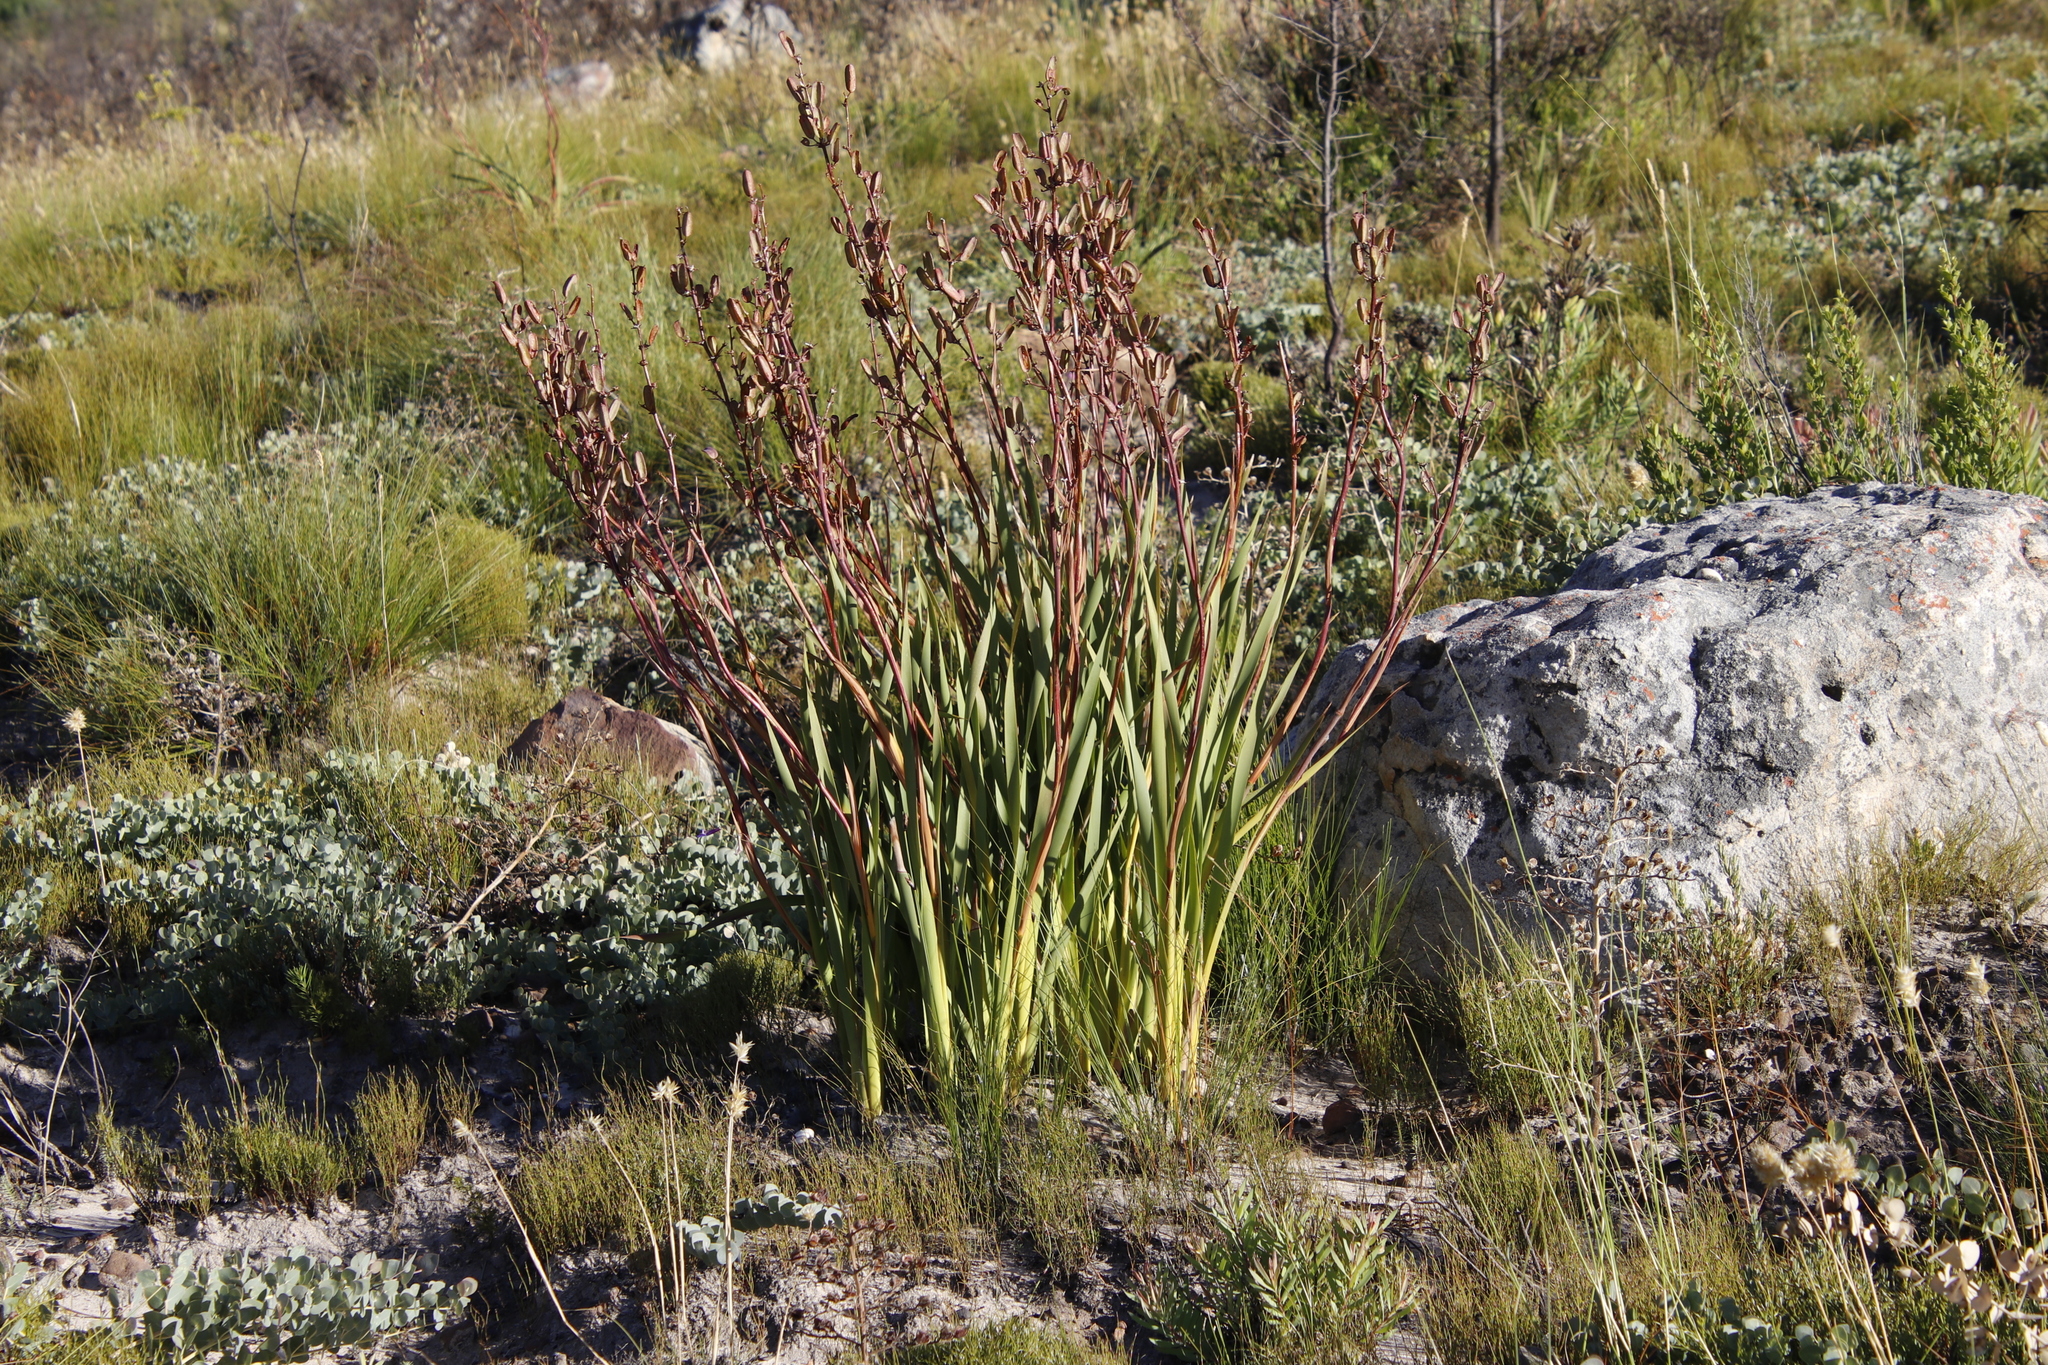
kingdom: Plantae
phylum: Tracheophyta
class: Liliopsida
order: Asparagales
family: Iridaceae
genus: Aristea
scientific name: Aristea bakeri
